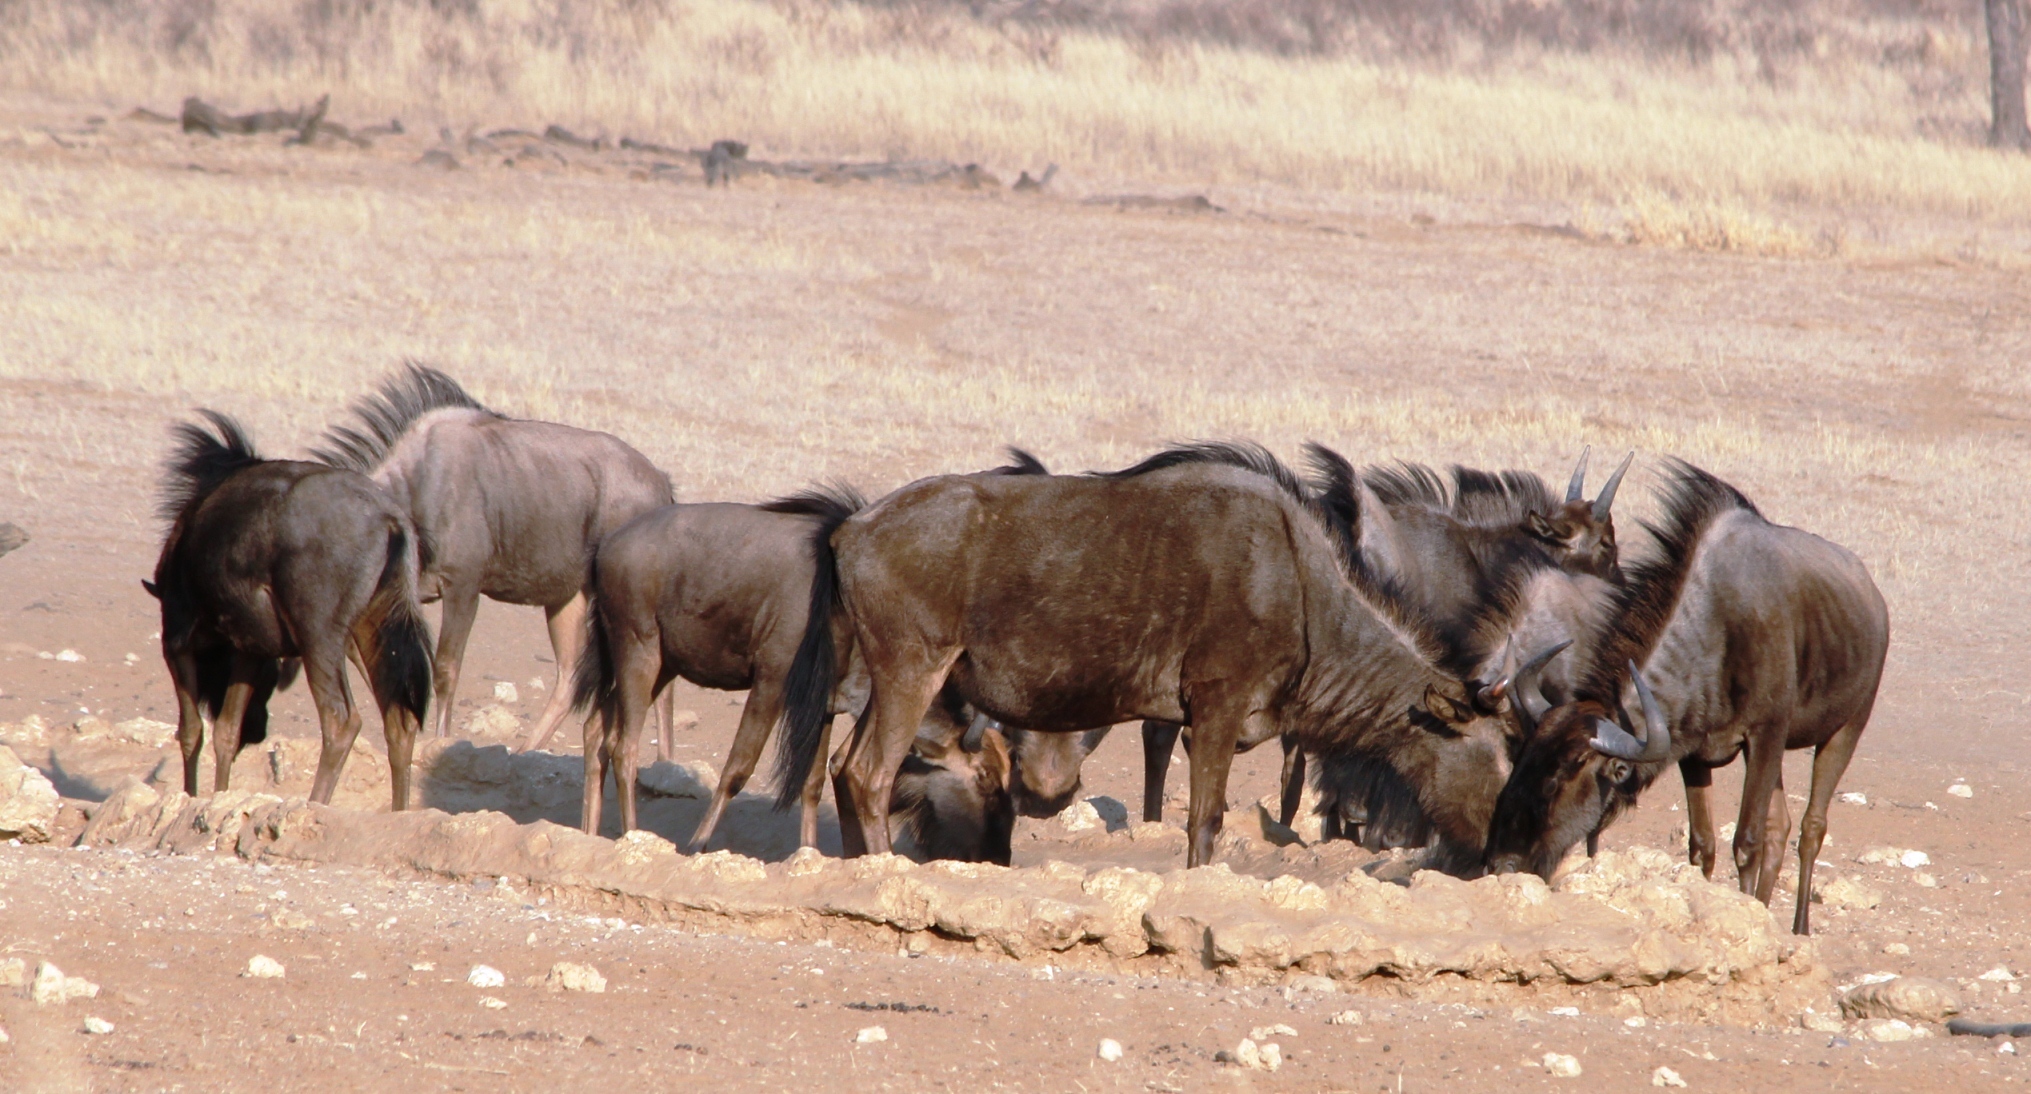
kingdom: Animalia
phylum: Chordata
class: Mammalia
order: Artiodactyla
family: Bovidae
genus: Connochaetes
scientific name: Connochaetes taurinus
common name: Blue wildebeest
